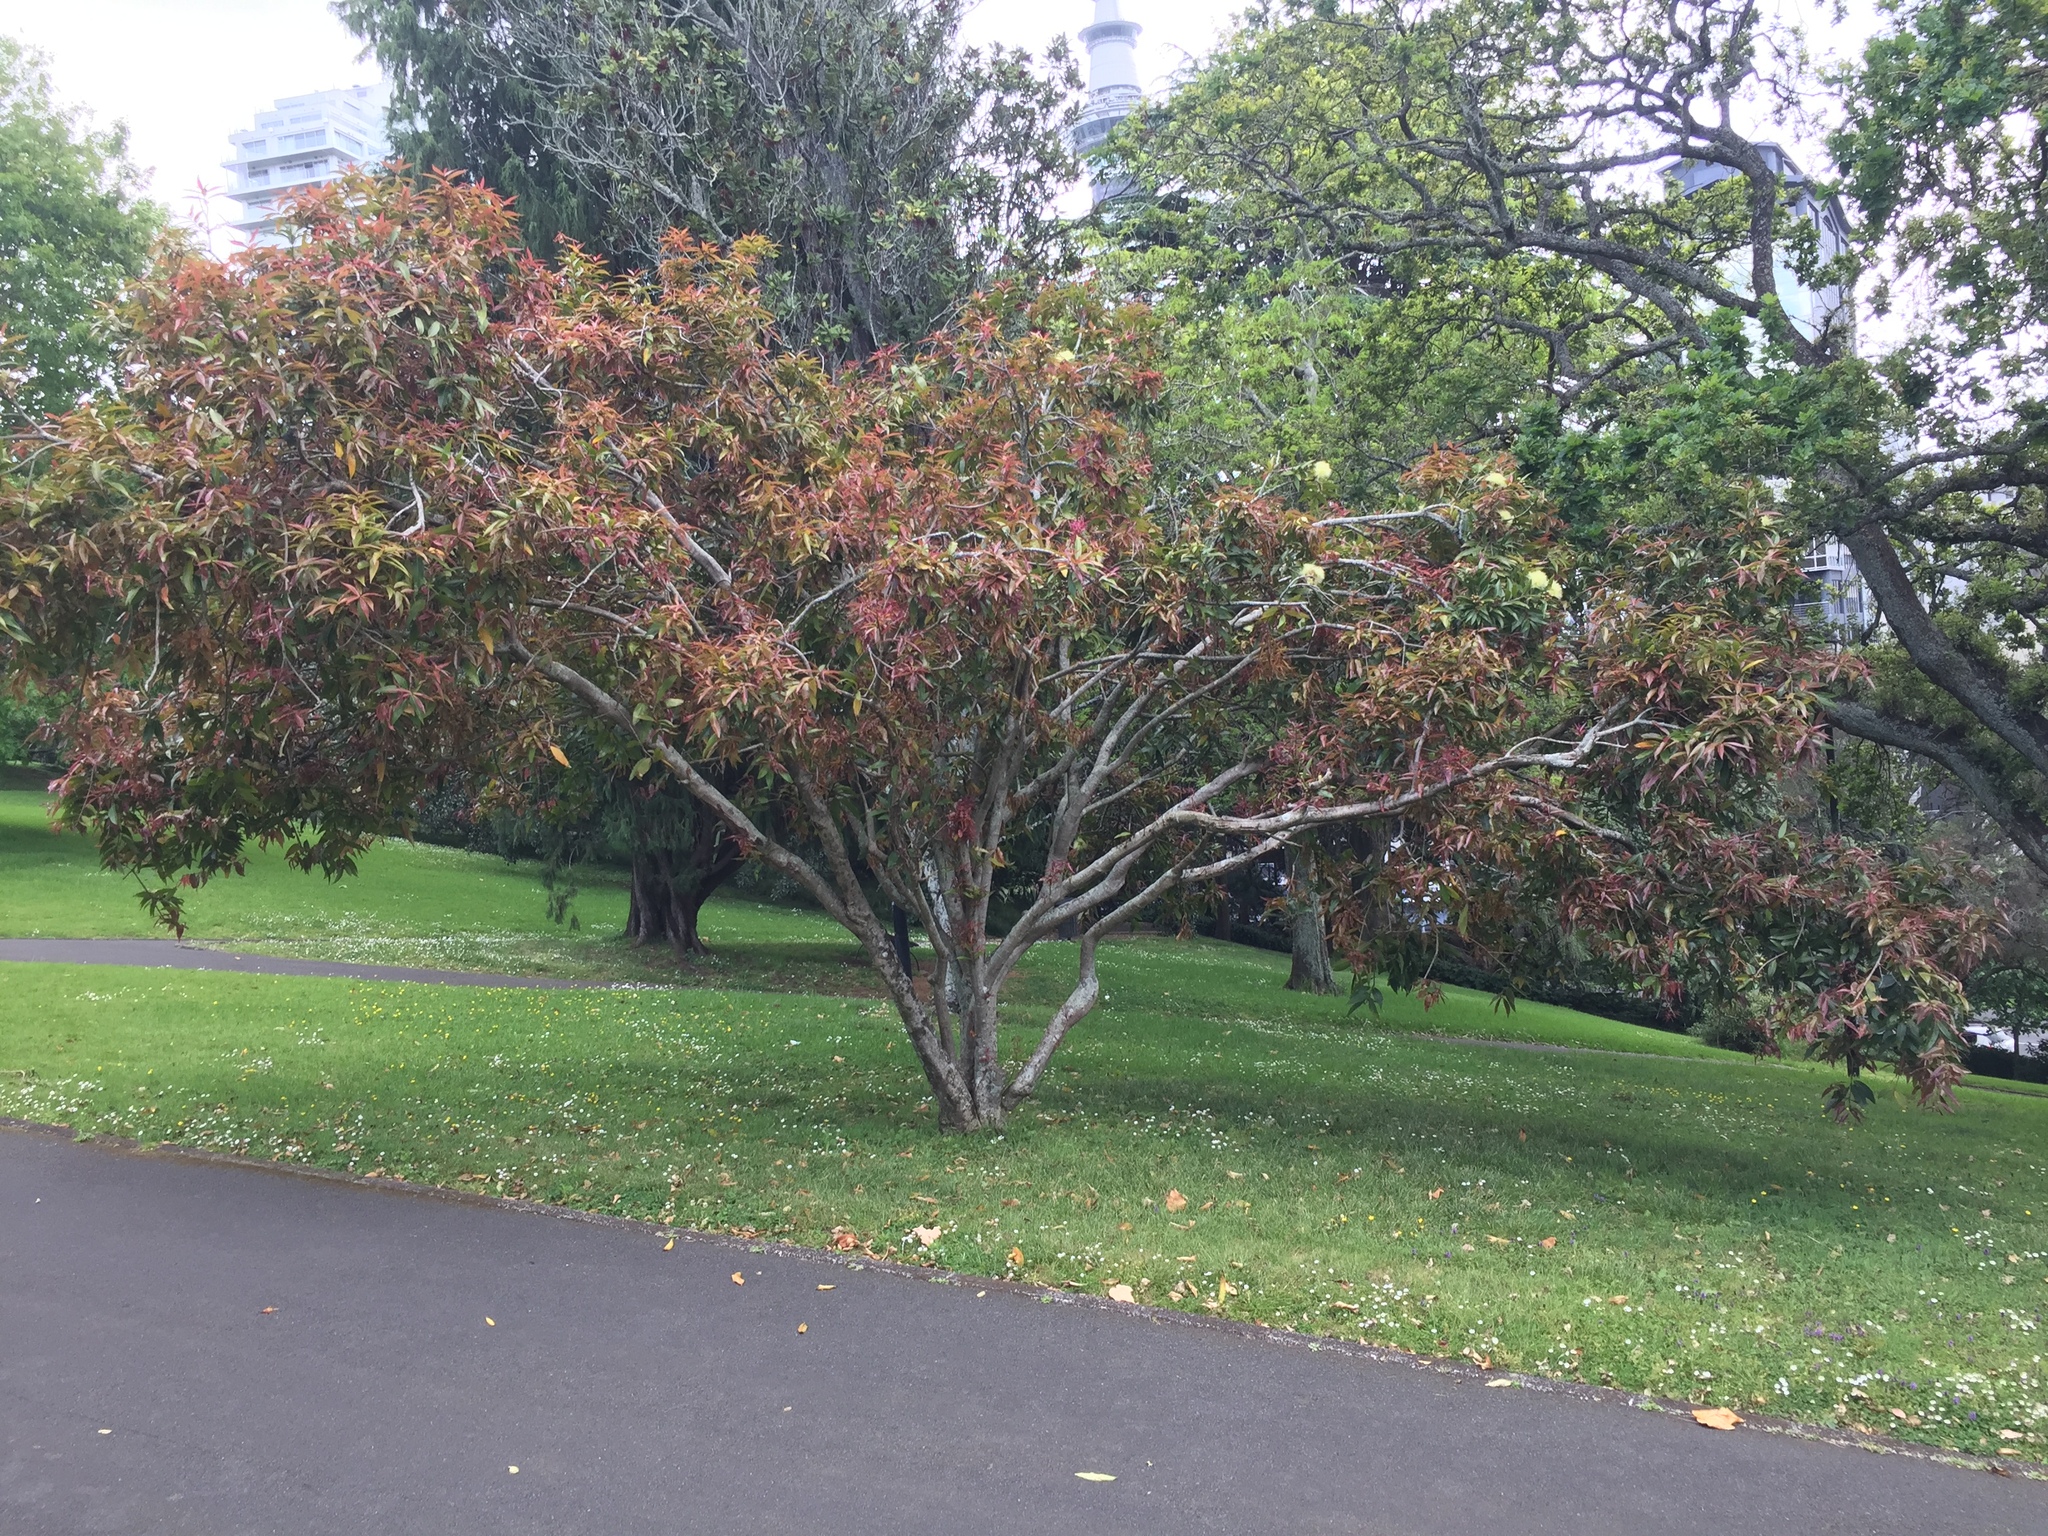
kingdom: Fungi
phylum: Basidiomycota
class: Pucciniomycetes
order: Pucciniales
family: Sphaerophragmiaceae
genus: Austropuccinia
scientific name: Austropuccinia psidii
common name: Myrtle rust
